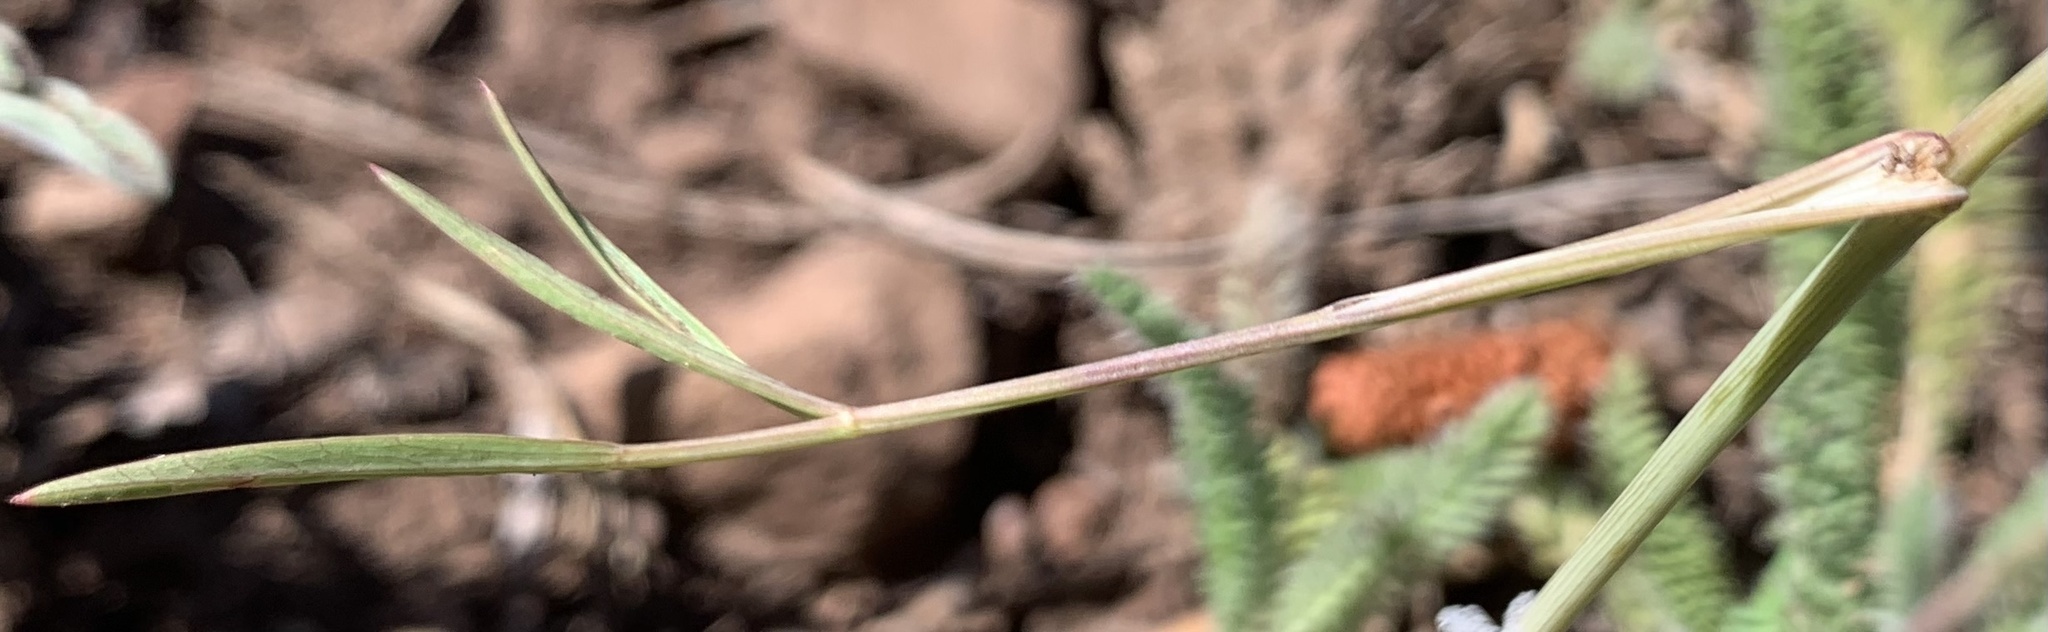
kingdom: Plantae
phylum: Tracheophyta
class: Magnoliopsida
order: Apiales
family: Apiaceae
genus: Perideridia
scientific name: Perideridia parishii
